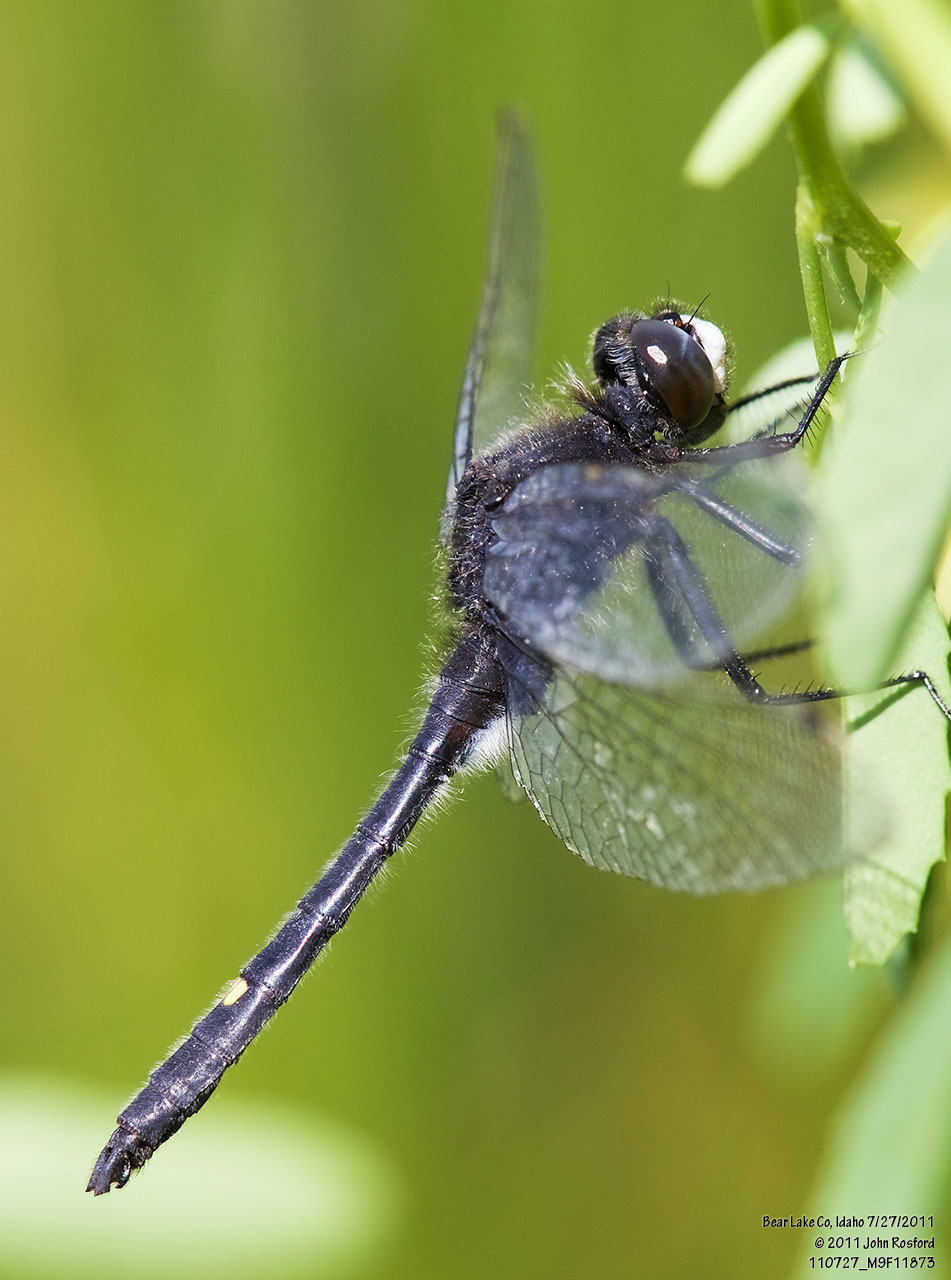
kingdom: Animalia
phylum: Arthropoda
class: Insecta
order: Odonata
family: Libellulidae
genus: Leucorrhinia
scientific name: Leucorrhinia intacta
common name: Dot-tailed whiteface
